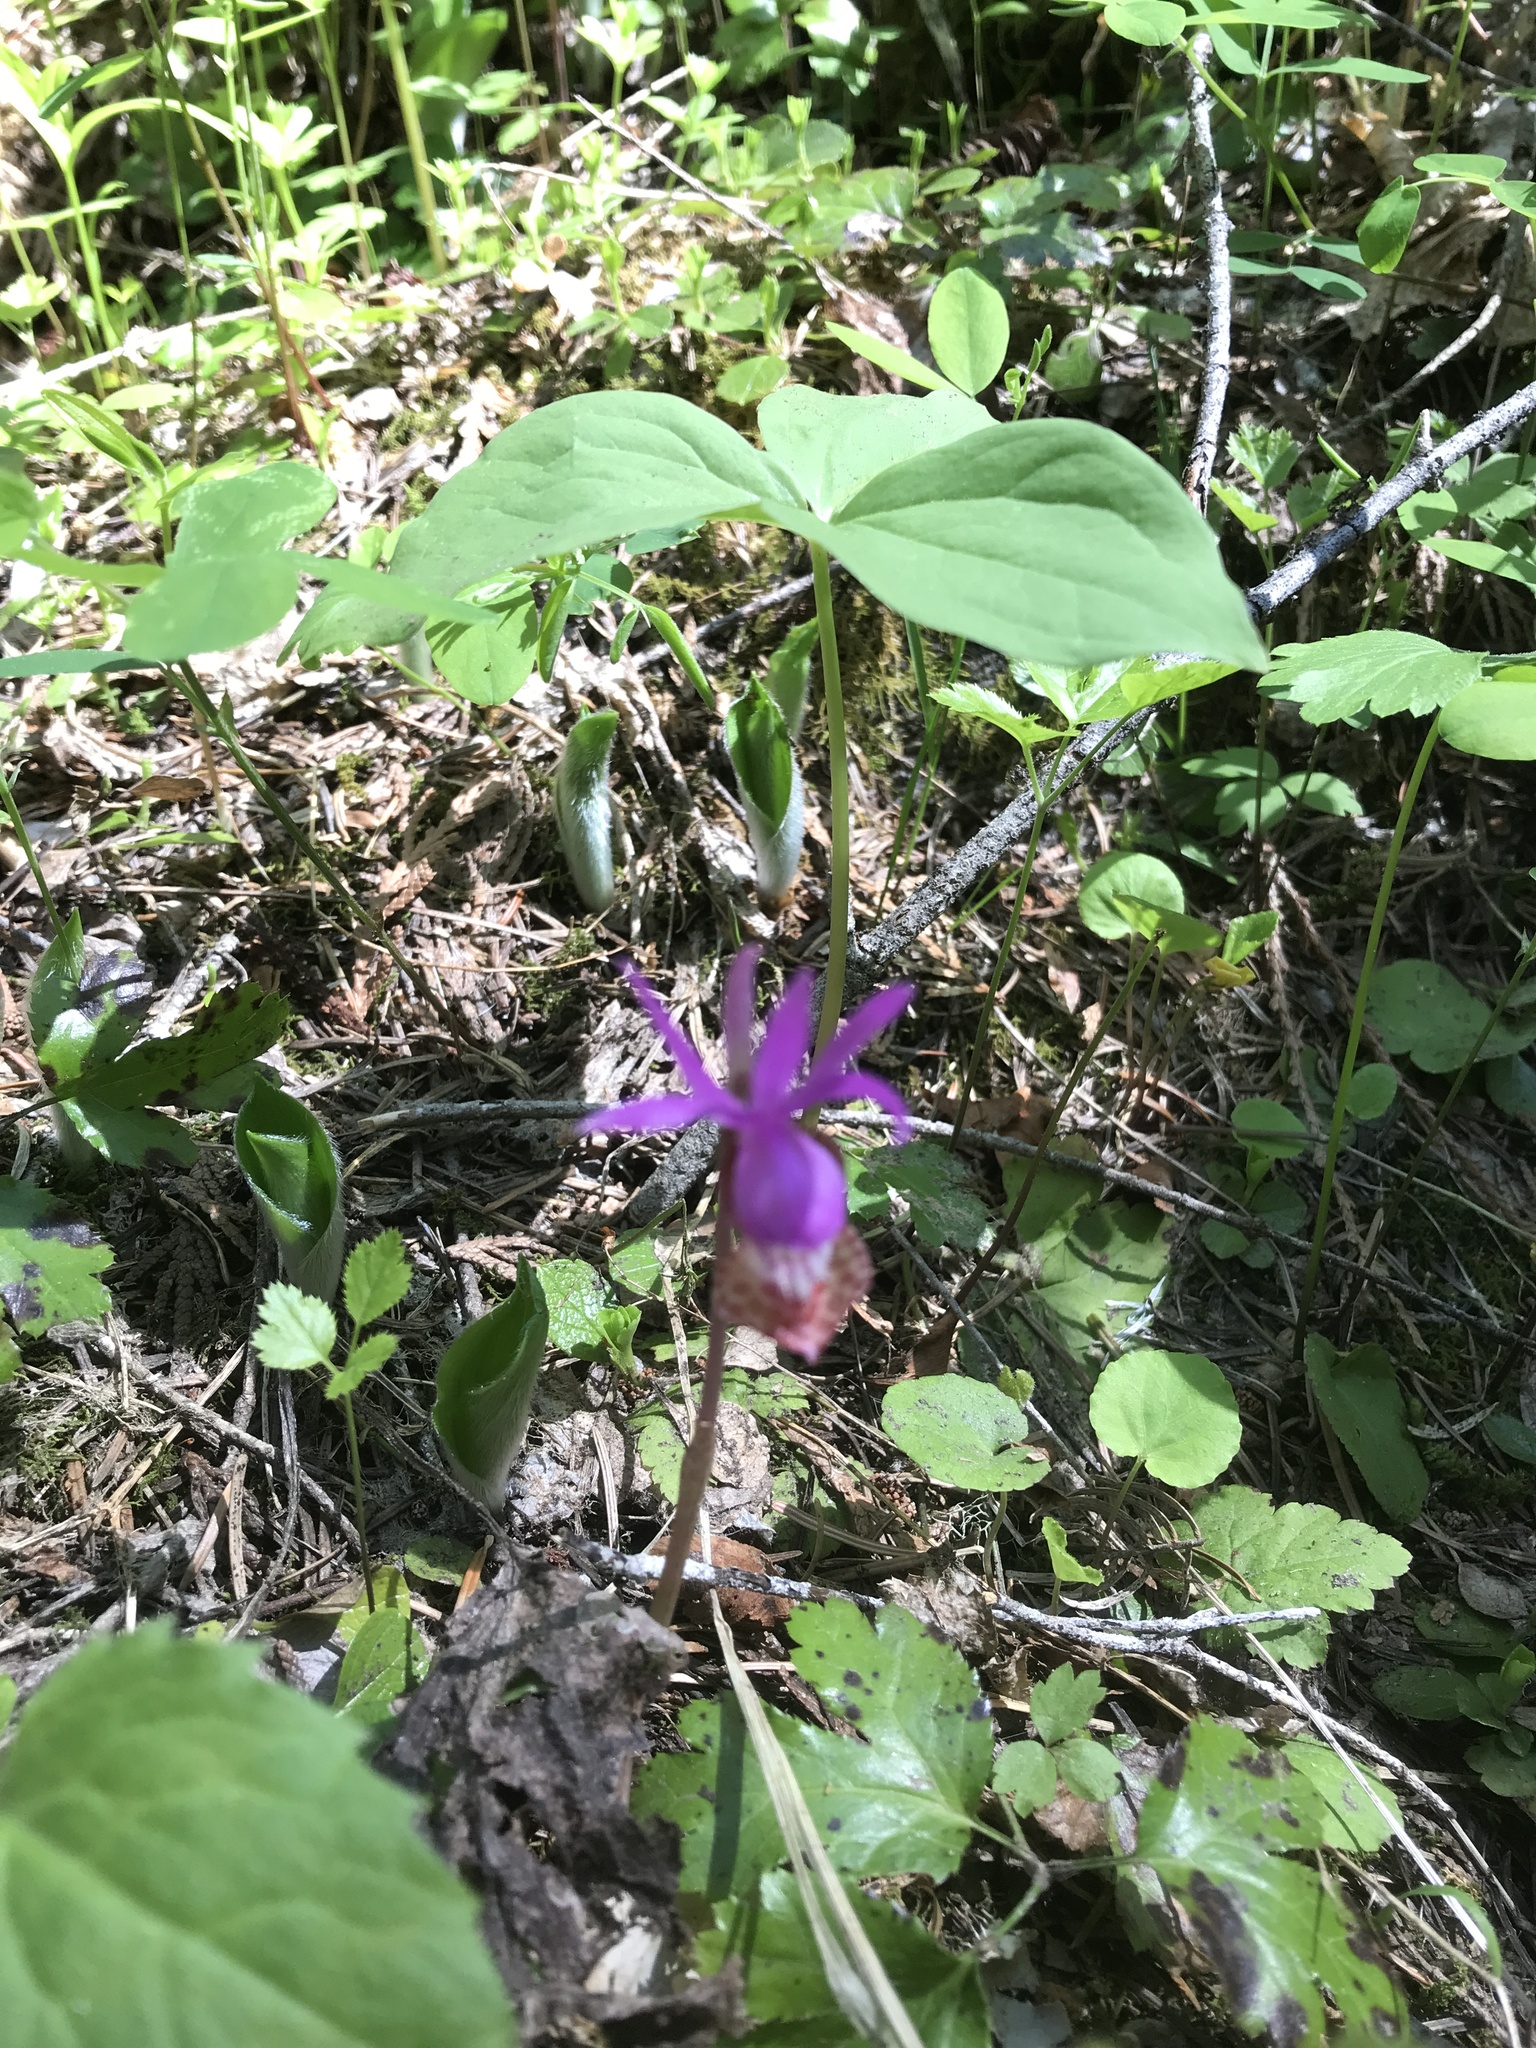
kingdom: Plantae
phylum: Tracheophyta
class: Liliopsida
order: Asparagales
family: Orchidaceae
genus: Calypso
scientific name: Calypso bulbosa
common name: Calypso
